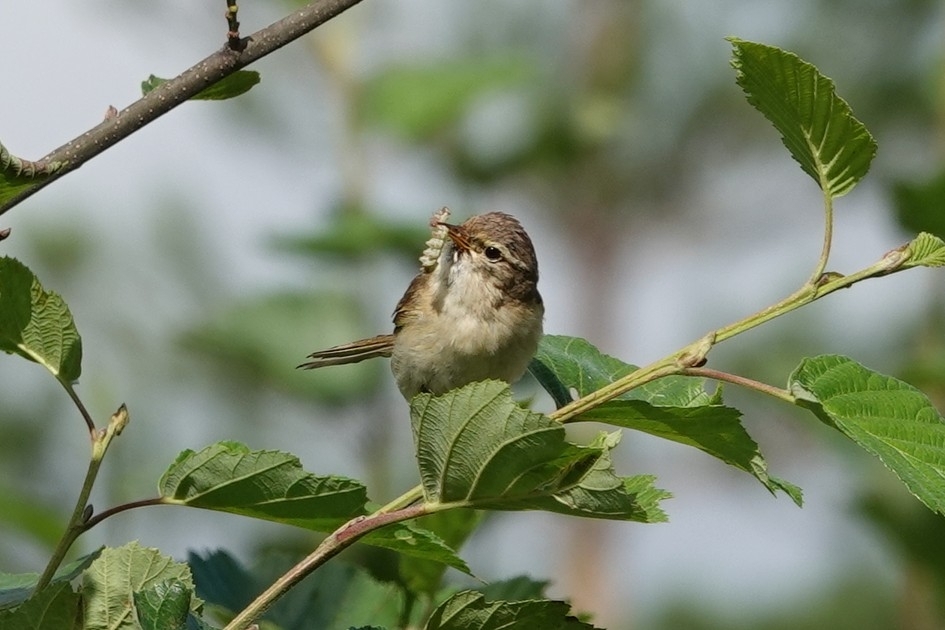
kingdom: Animalia
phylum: Chordata
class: Aves
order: Passeriformes
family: Phylloscopidae
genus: Phylloscopus
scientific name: Phylloscopus trochilus
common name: Willow warbler
